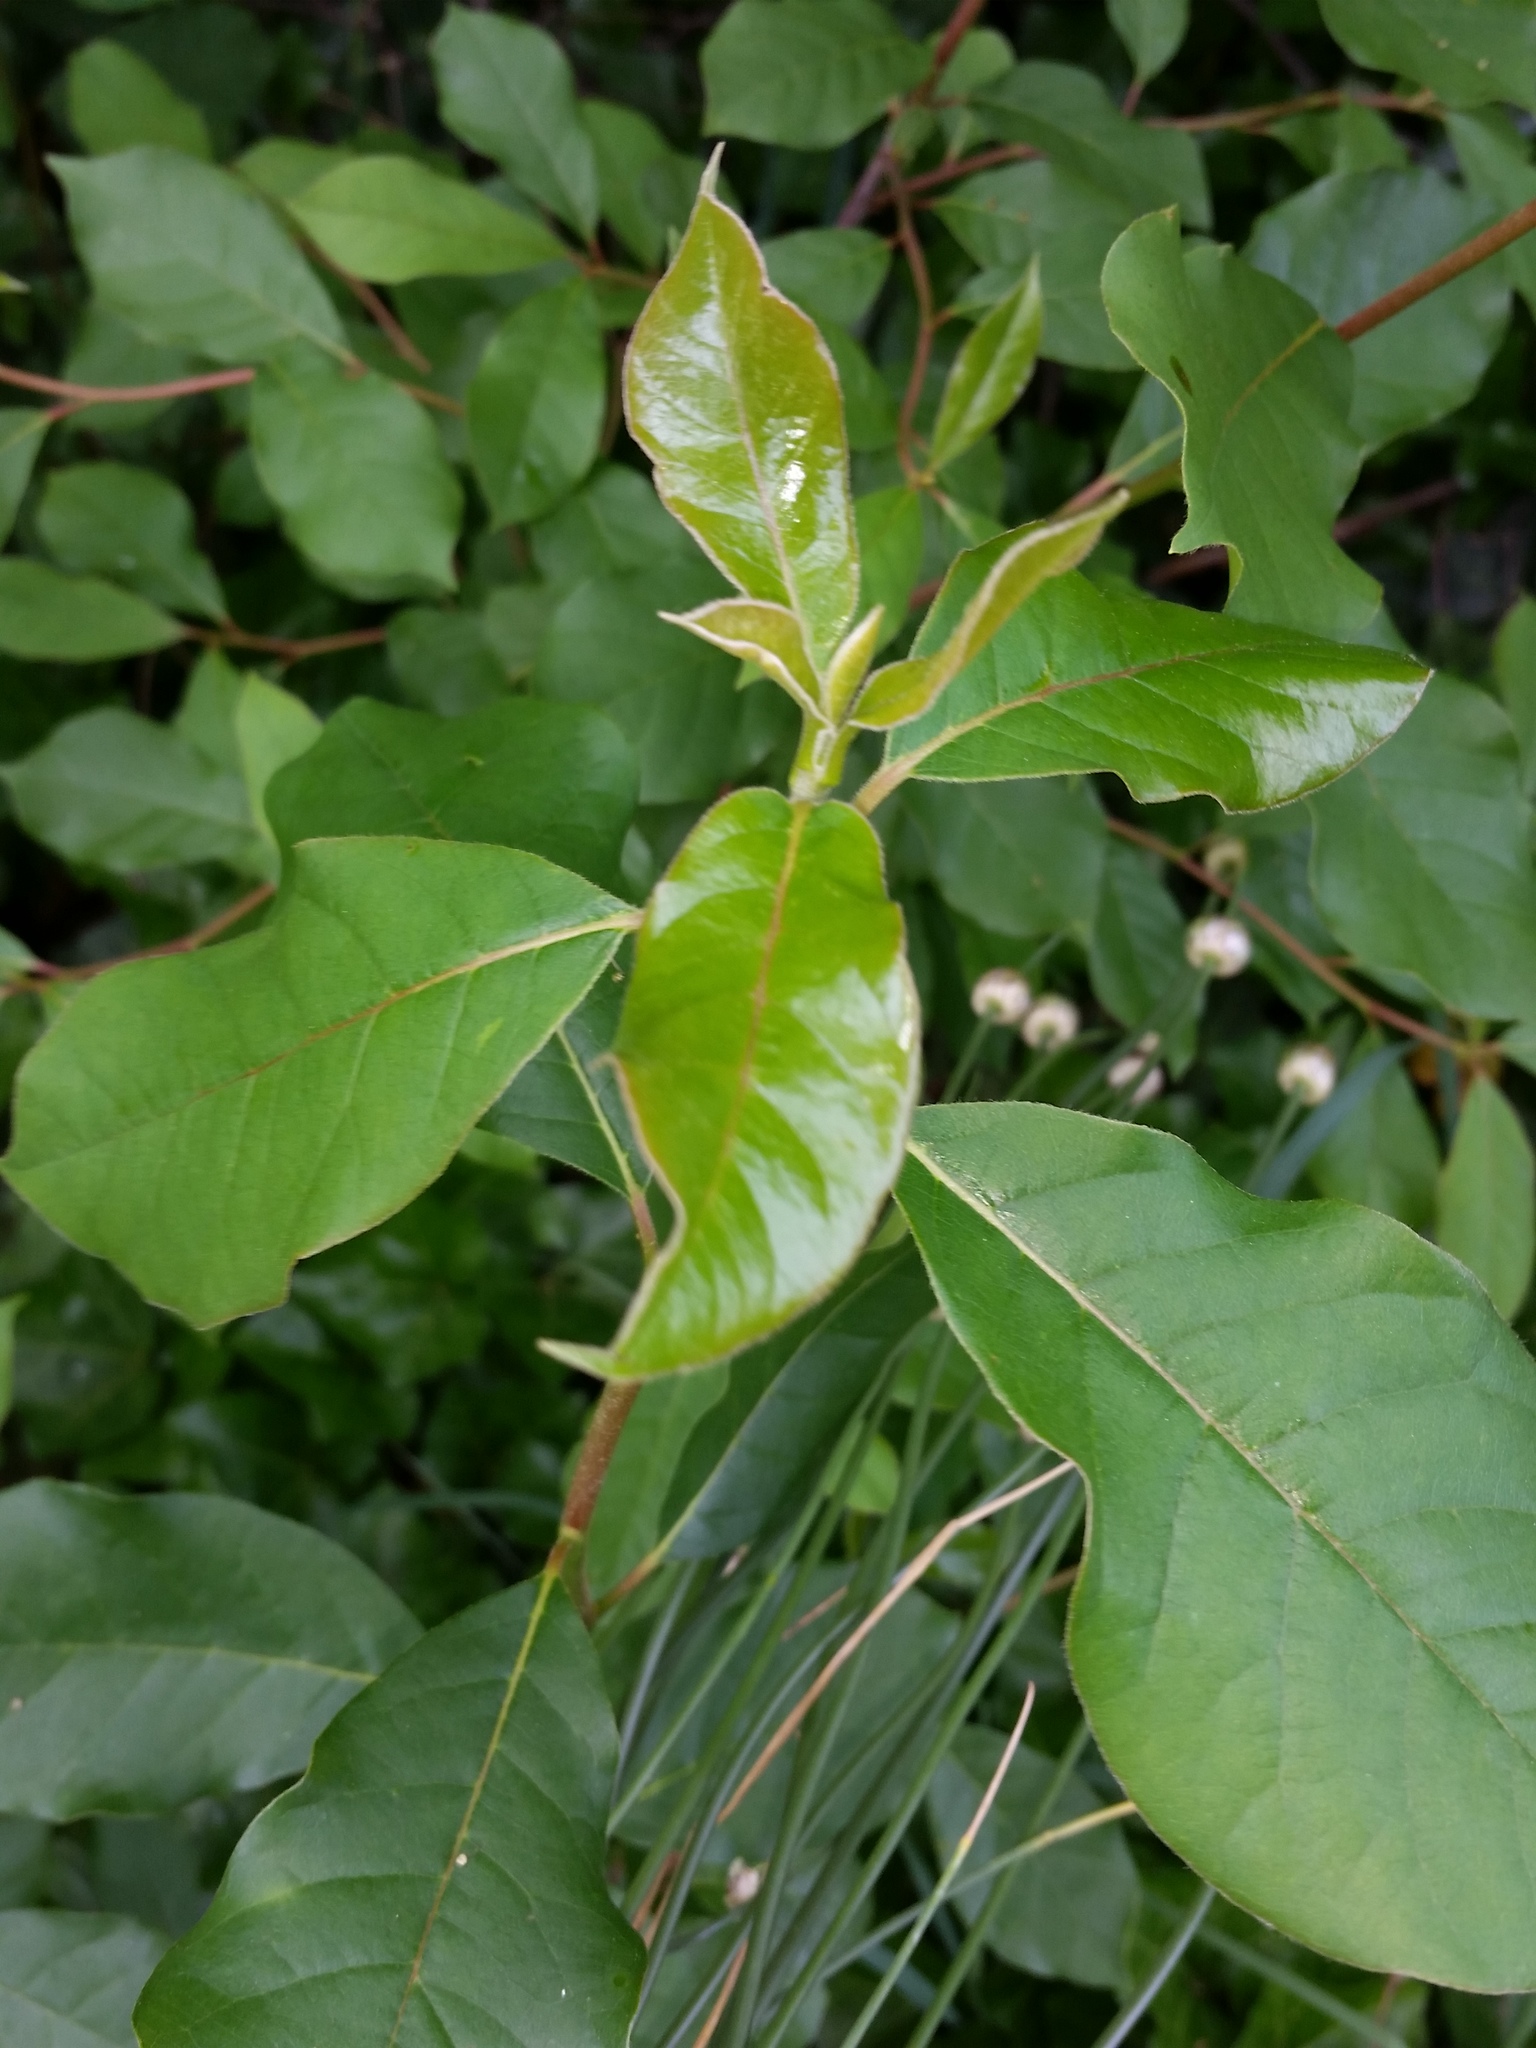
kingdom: Plantae
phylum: Tracheophyta
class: Magnoliopsida
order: Cornales
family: Nyssaceae
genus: Nyssa
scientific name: Nyssa sylvatica
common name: Black tupelo
